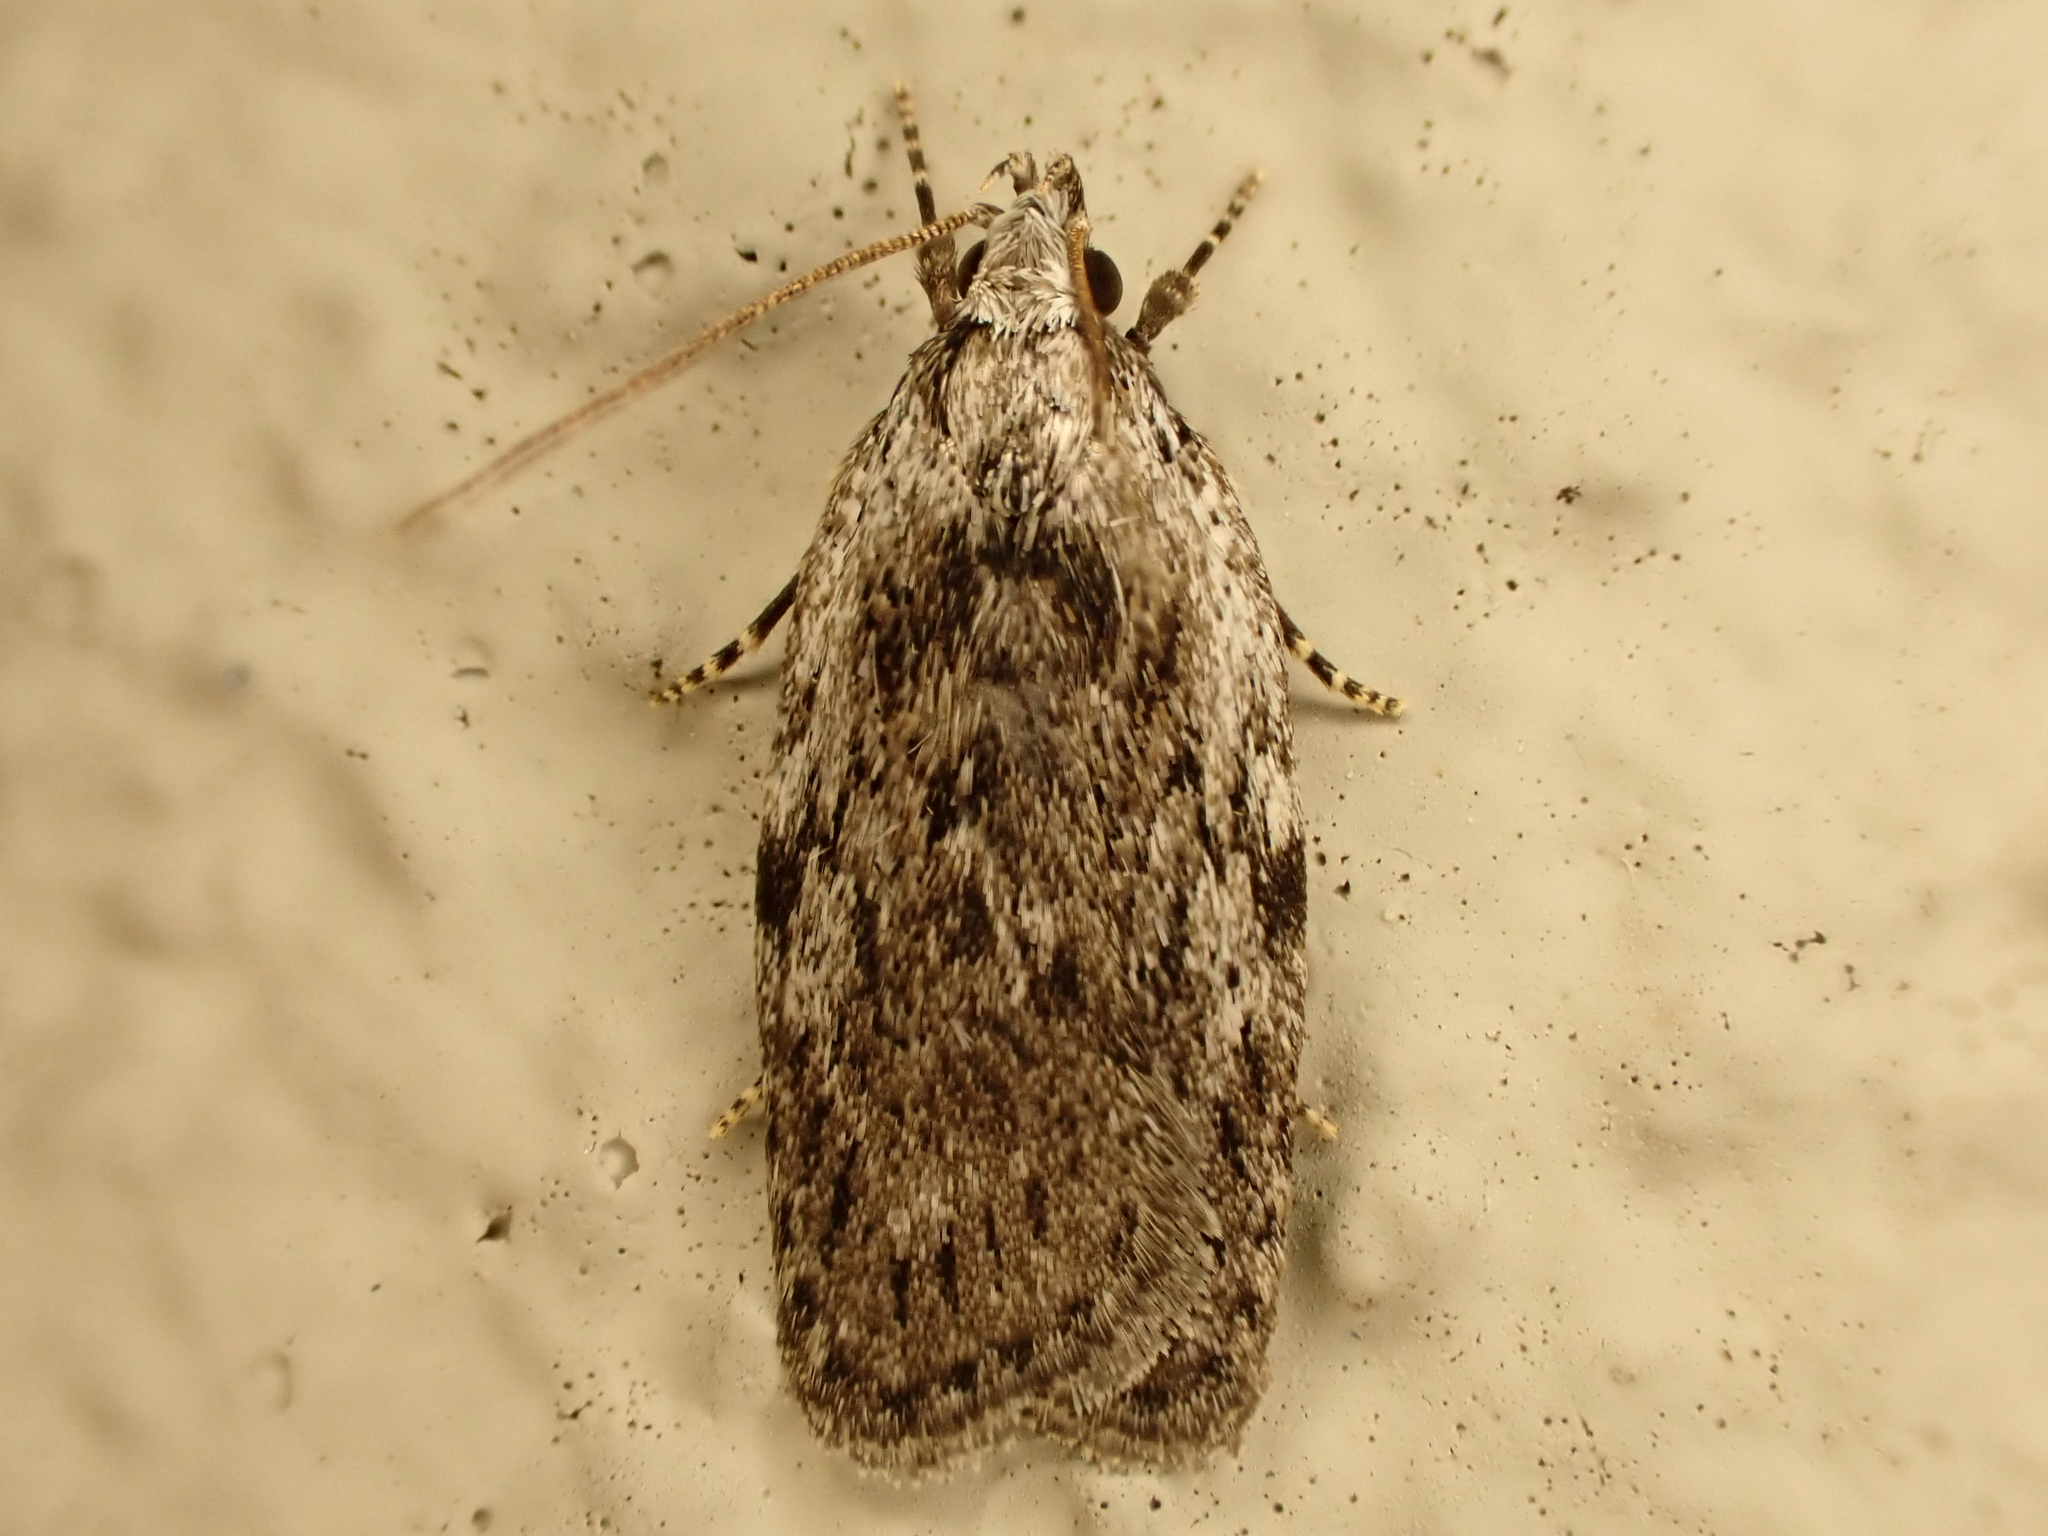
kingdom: Animalia
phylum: Arthropoda
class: Insecta
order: Lepidoptera
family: Depressariidae
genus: Phaeosaces
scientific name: Phaeosaces compsotypa
